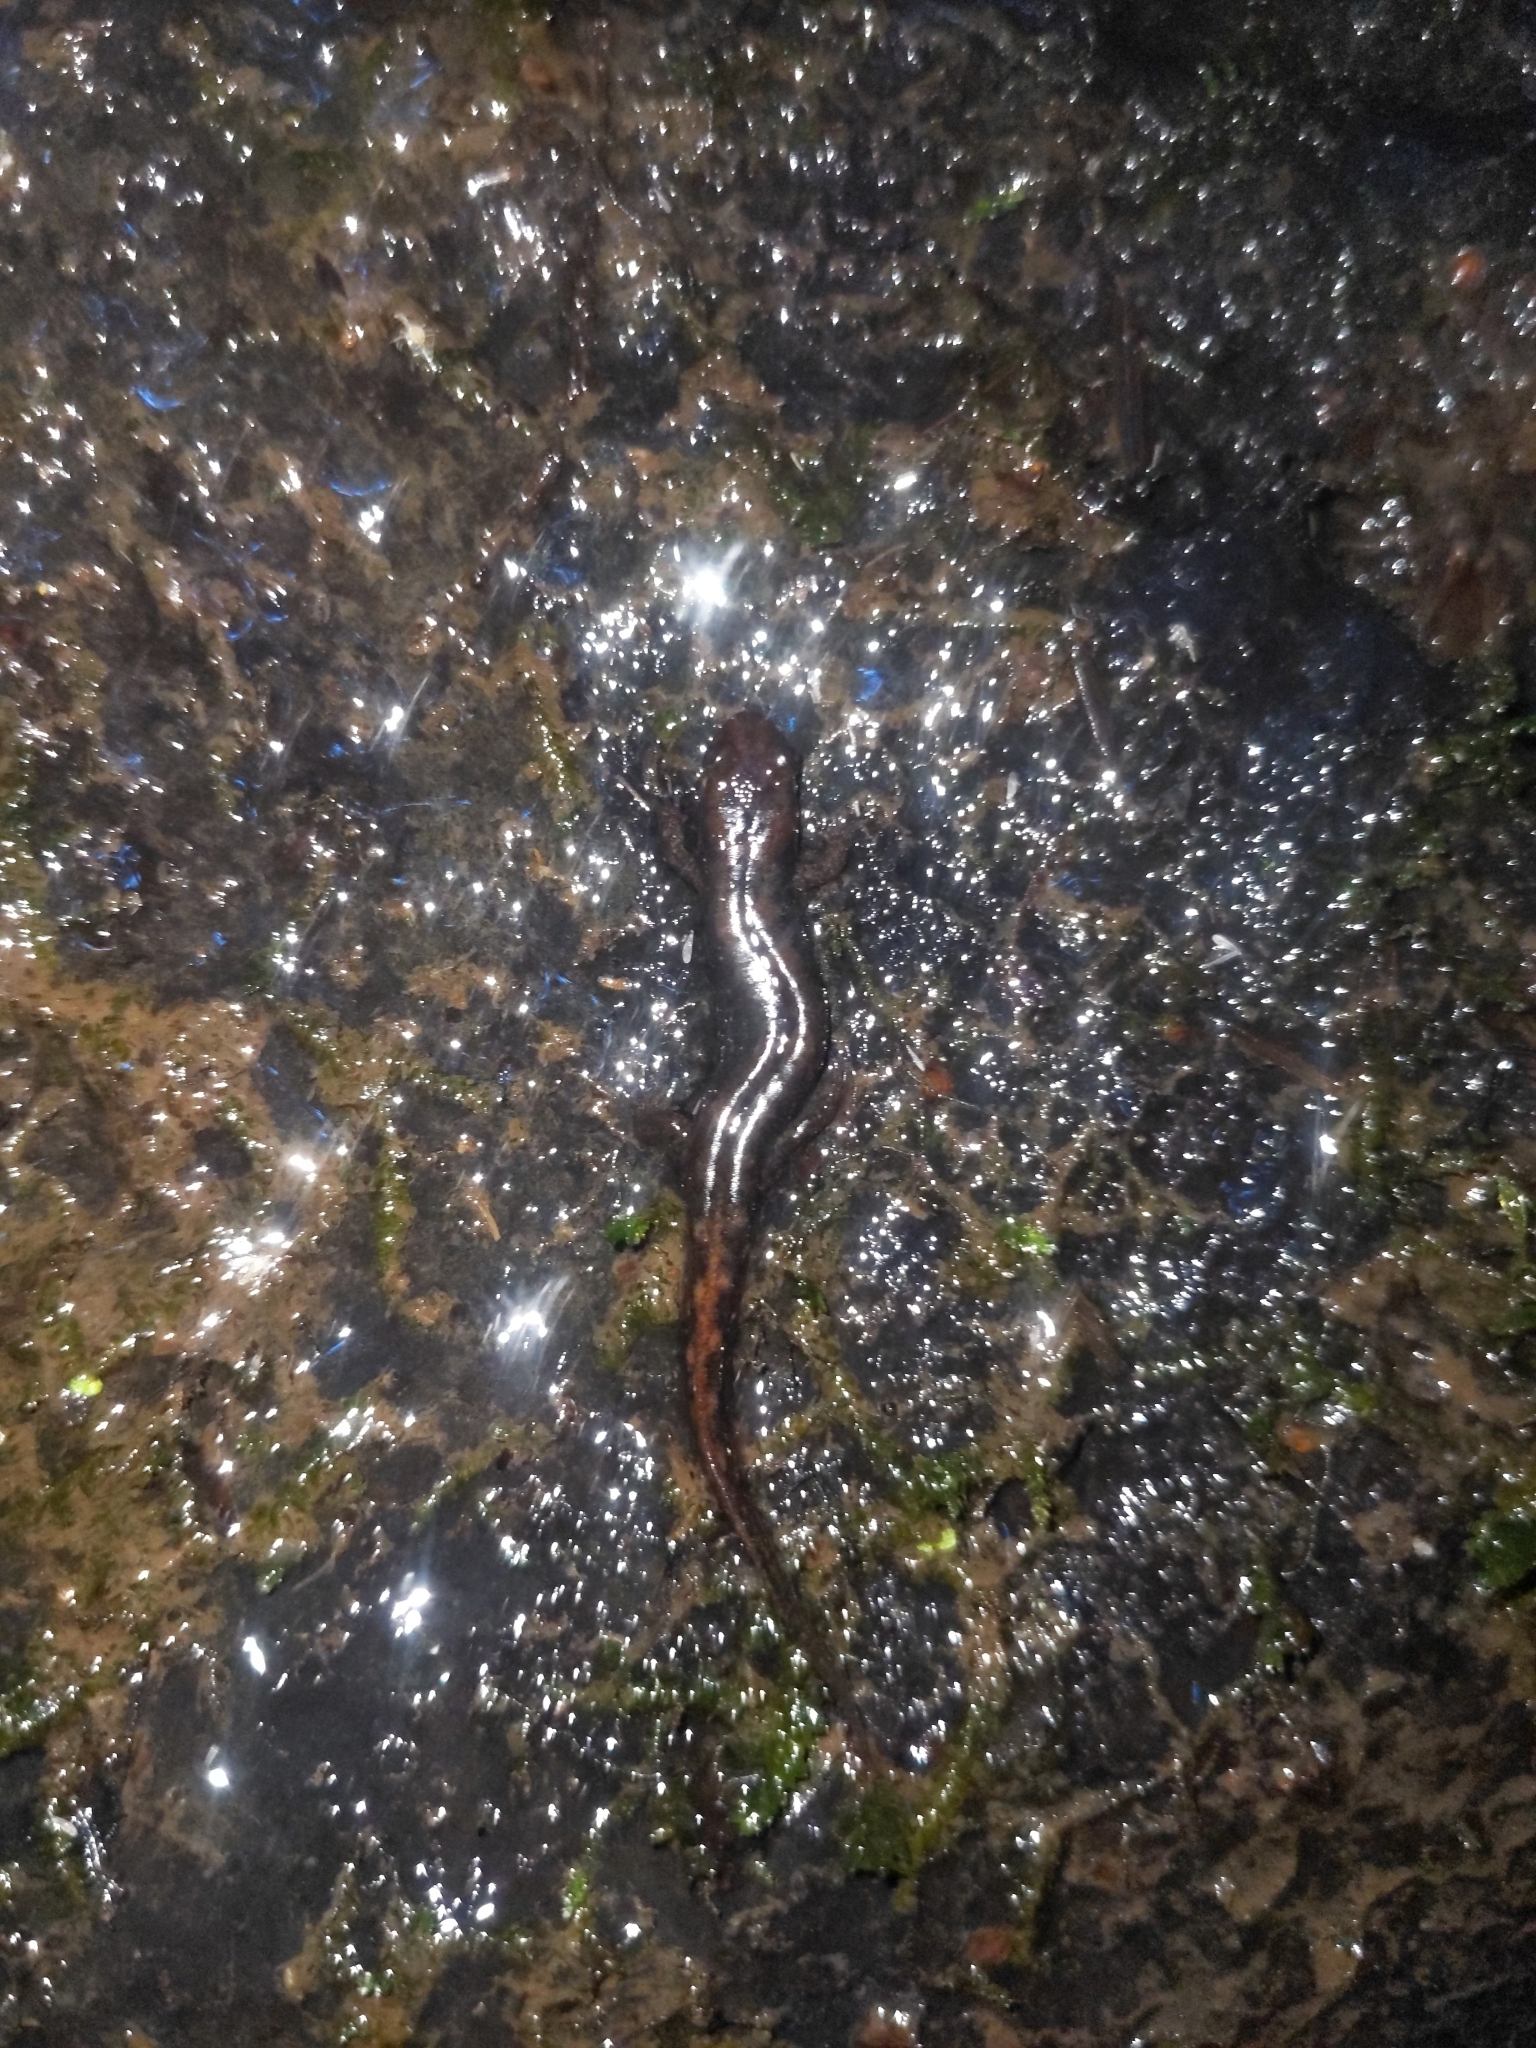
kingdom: Animalia
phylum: Chordata
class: Amphibia
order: Caudata
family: Plethodontidae
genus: Desmognathus
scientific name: Desmognathus monticola
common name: Seal salamander
